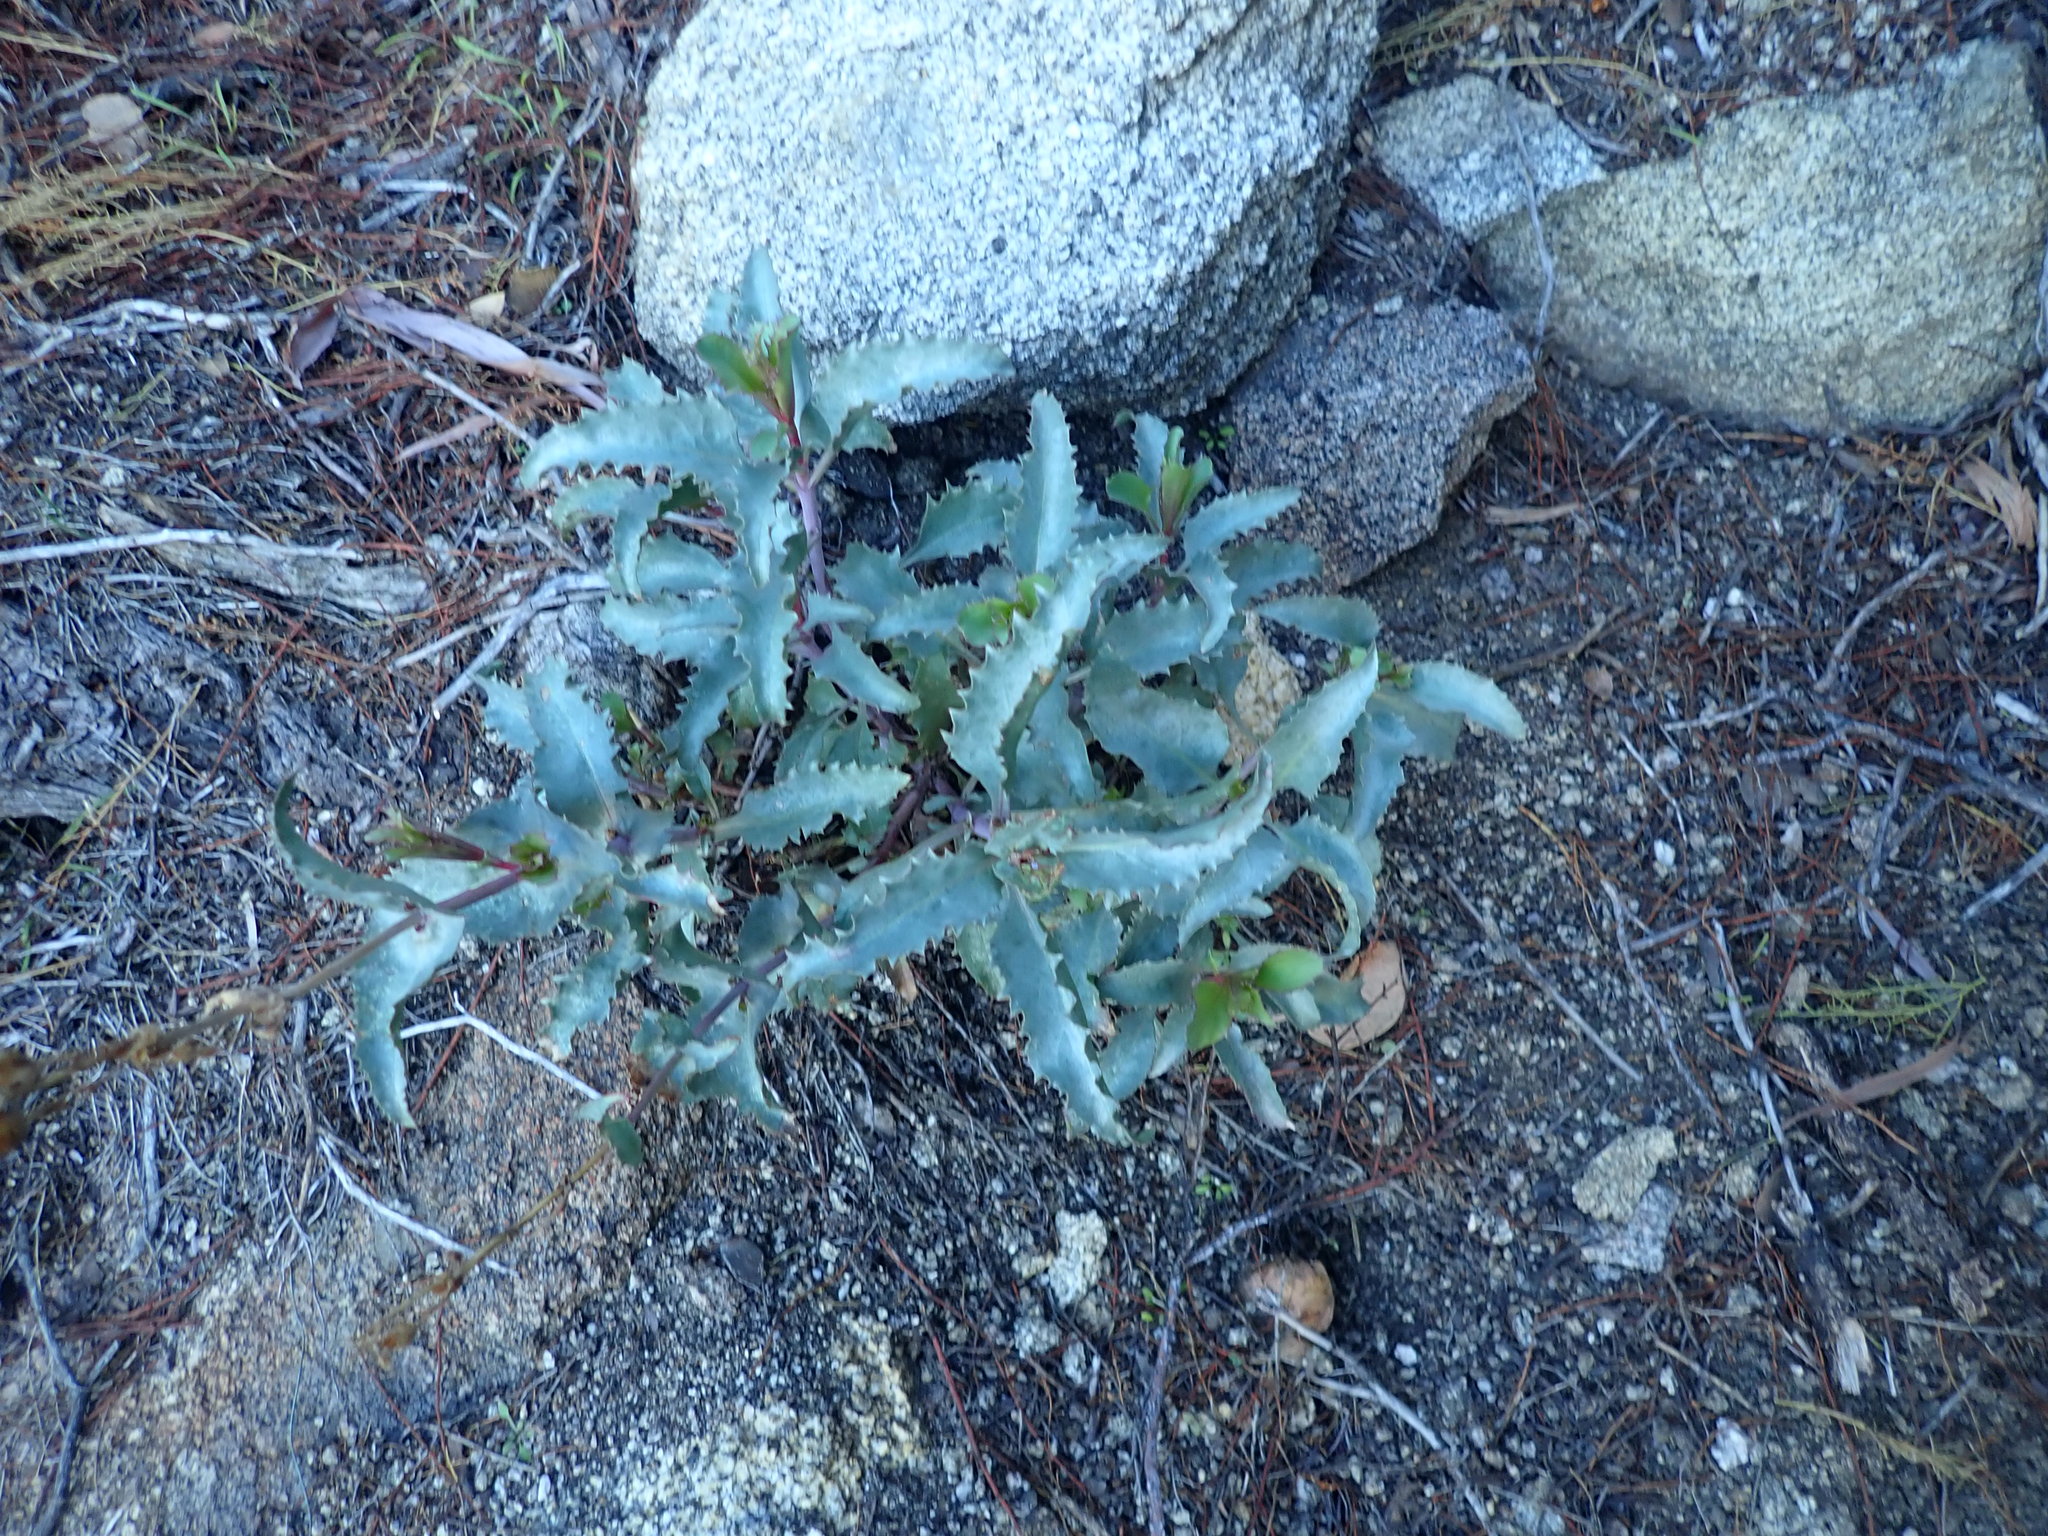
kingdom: Plantae
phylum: Tracheophyta
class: Magnoliopsida
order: Lamiales
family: Plantaginaceae
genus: Penstemon
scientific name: Penstemon clevelandii
